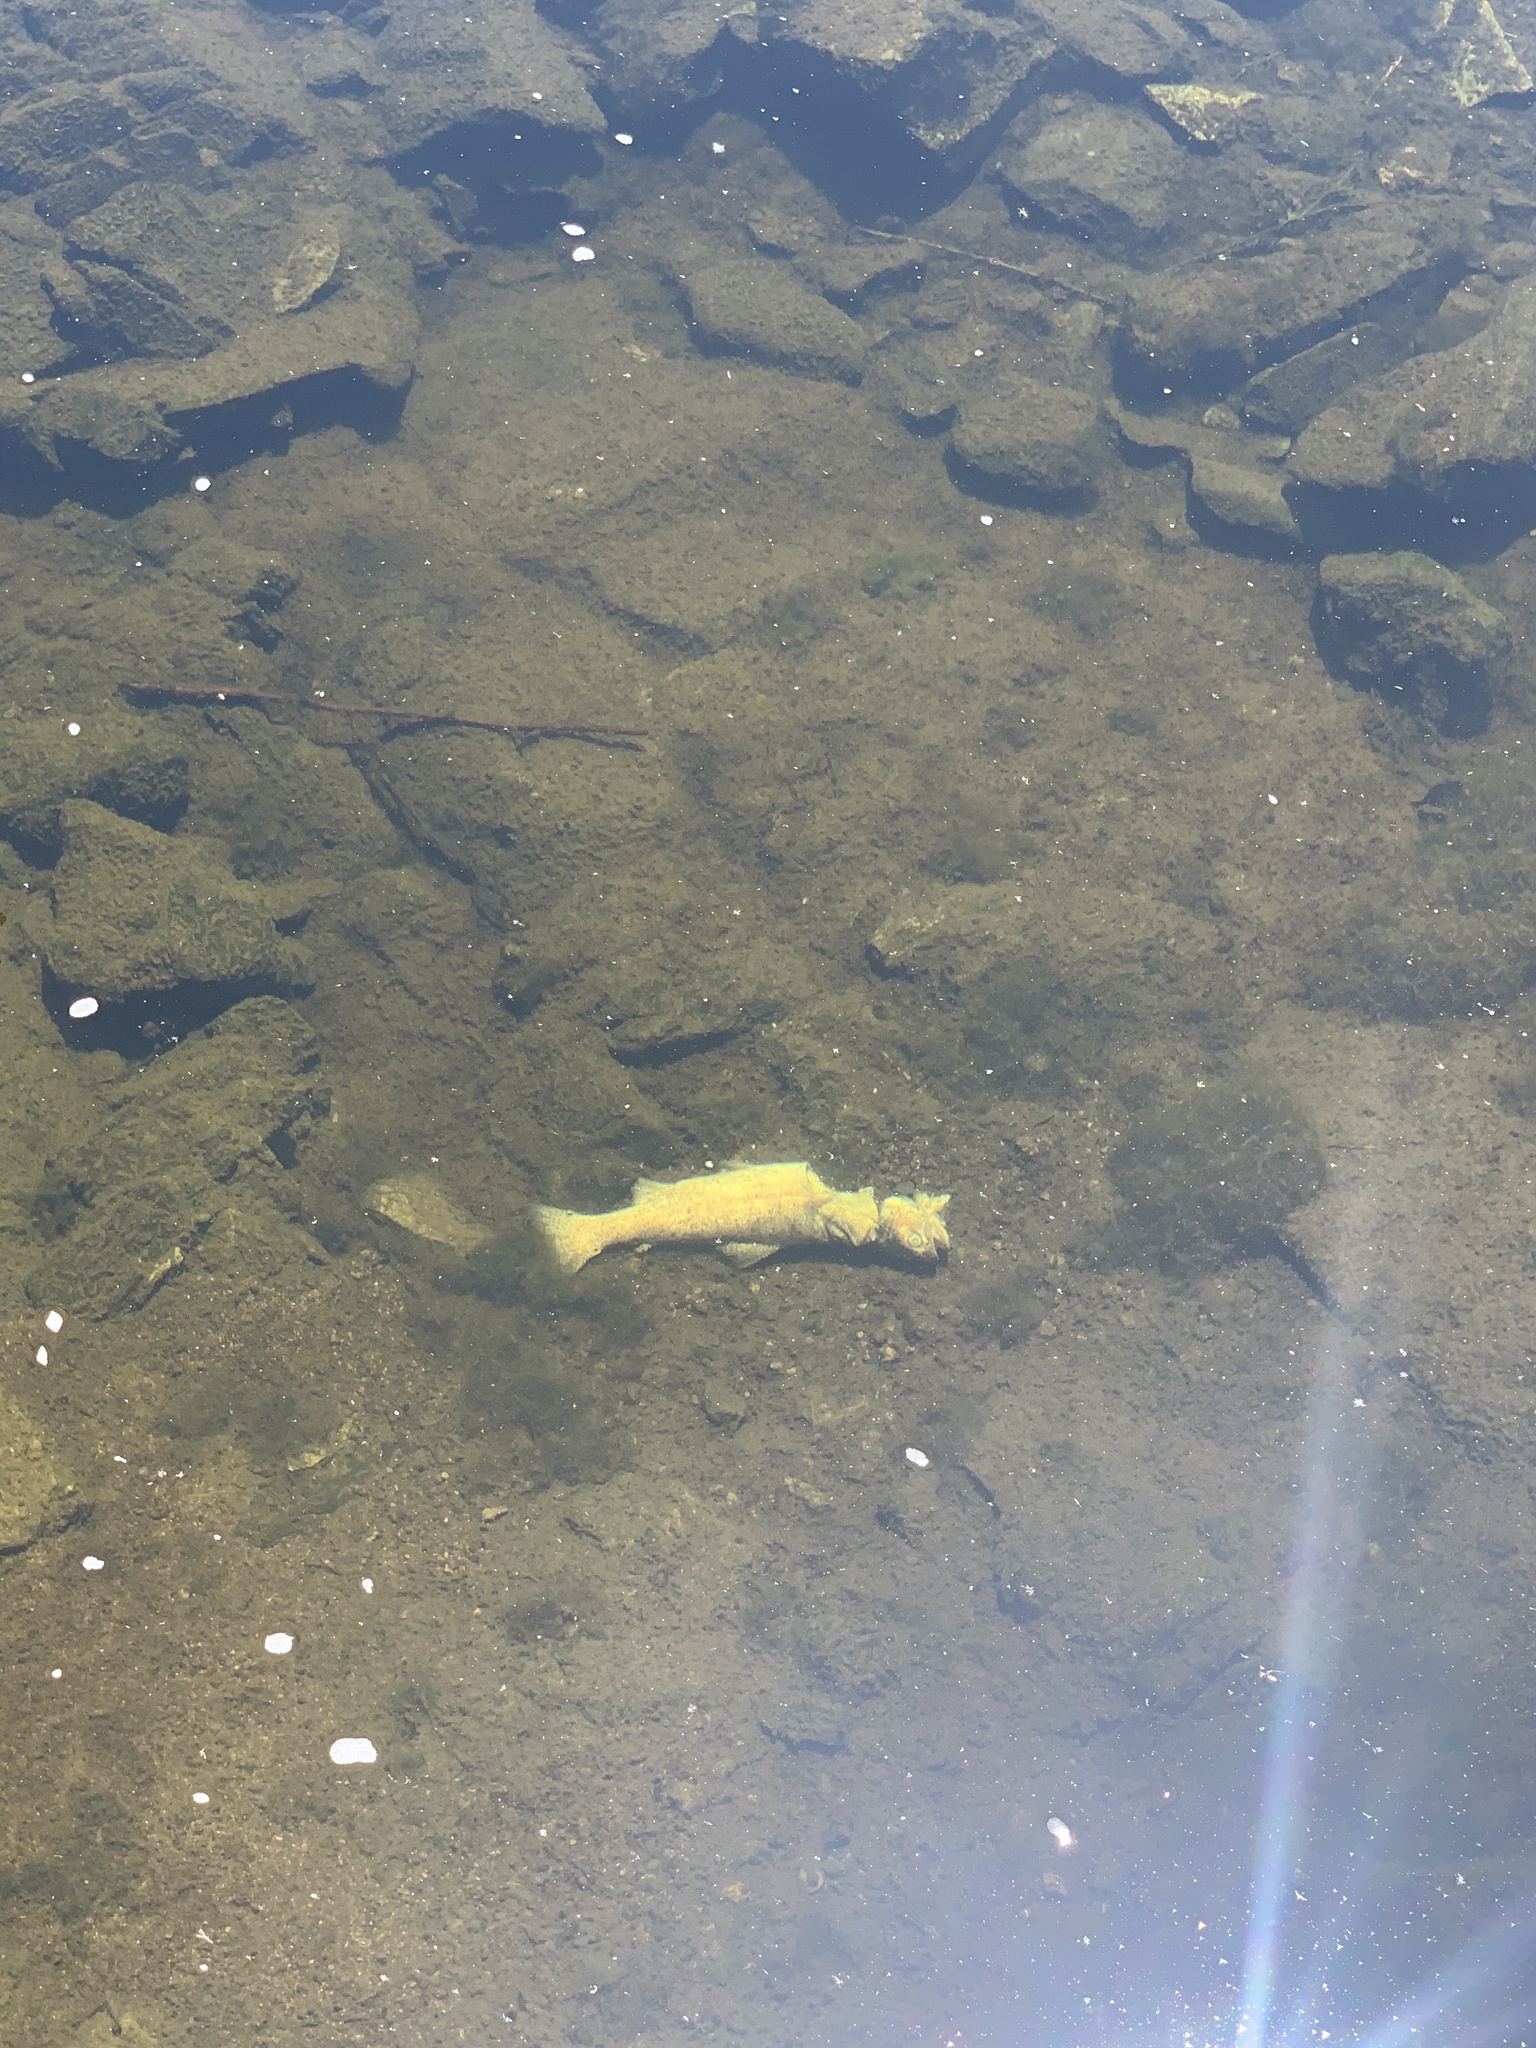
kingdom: Animalia
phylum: Chordata
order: Salmoniformes
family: Salmonidae
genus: Oncorhynchus
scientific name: Oncorhynchus mykiss
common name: Rainbow trout
